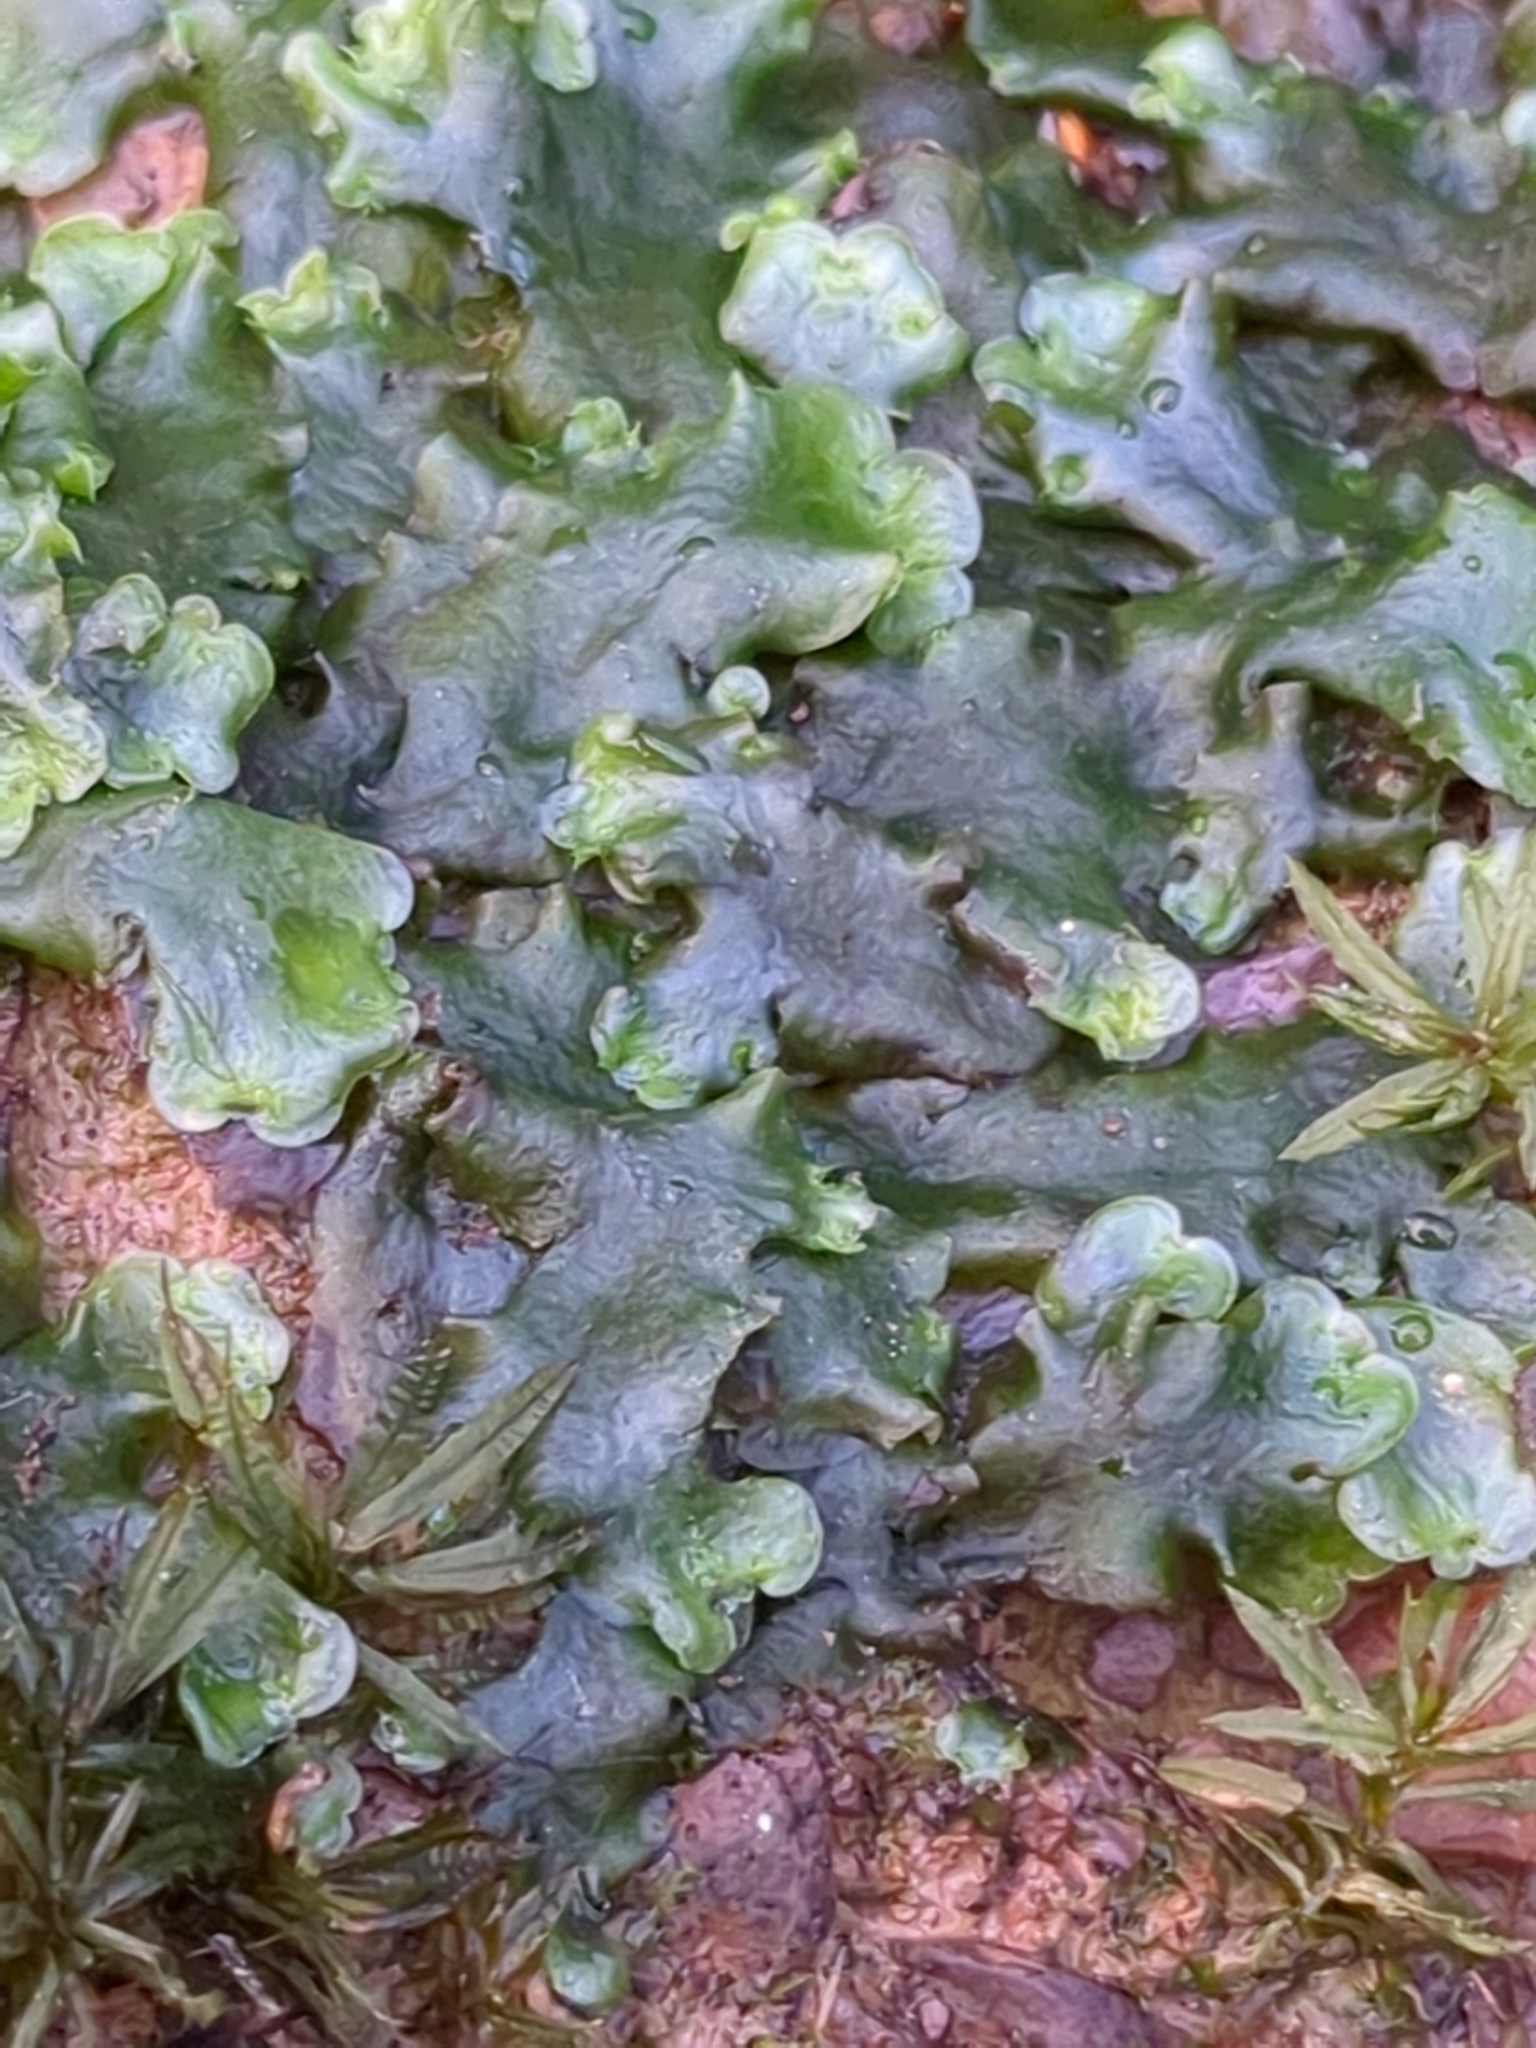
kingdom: Plantae
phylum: Marchantiophyta
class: Jungermanniopsida
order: Pelliales
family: Pelliaceae
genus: Pellia
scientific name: Pellia epiphylla
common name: Common pellia
